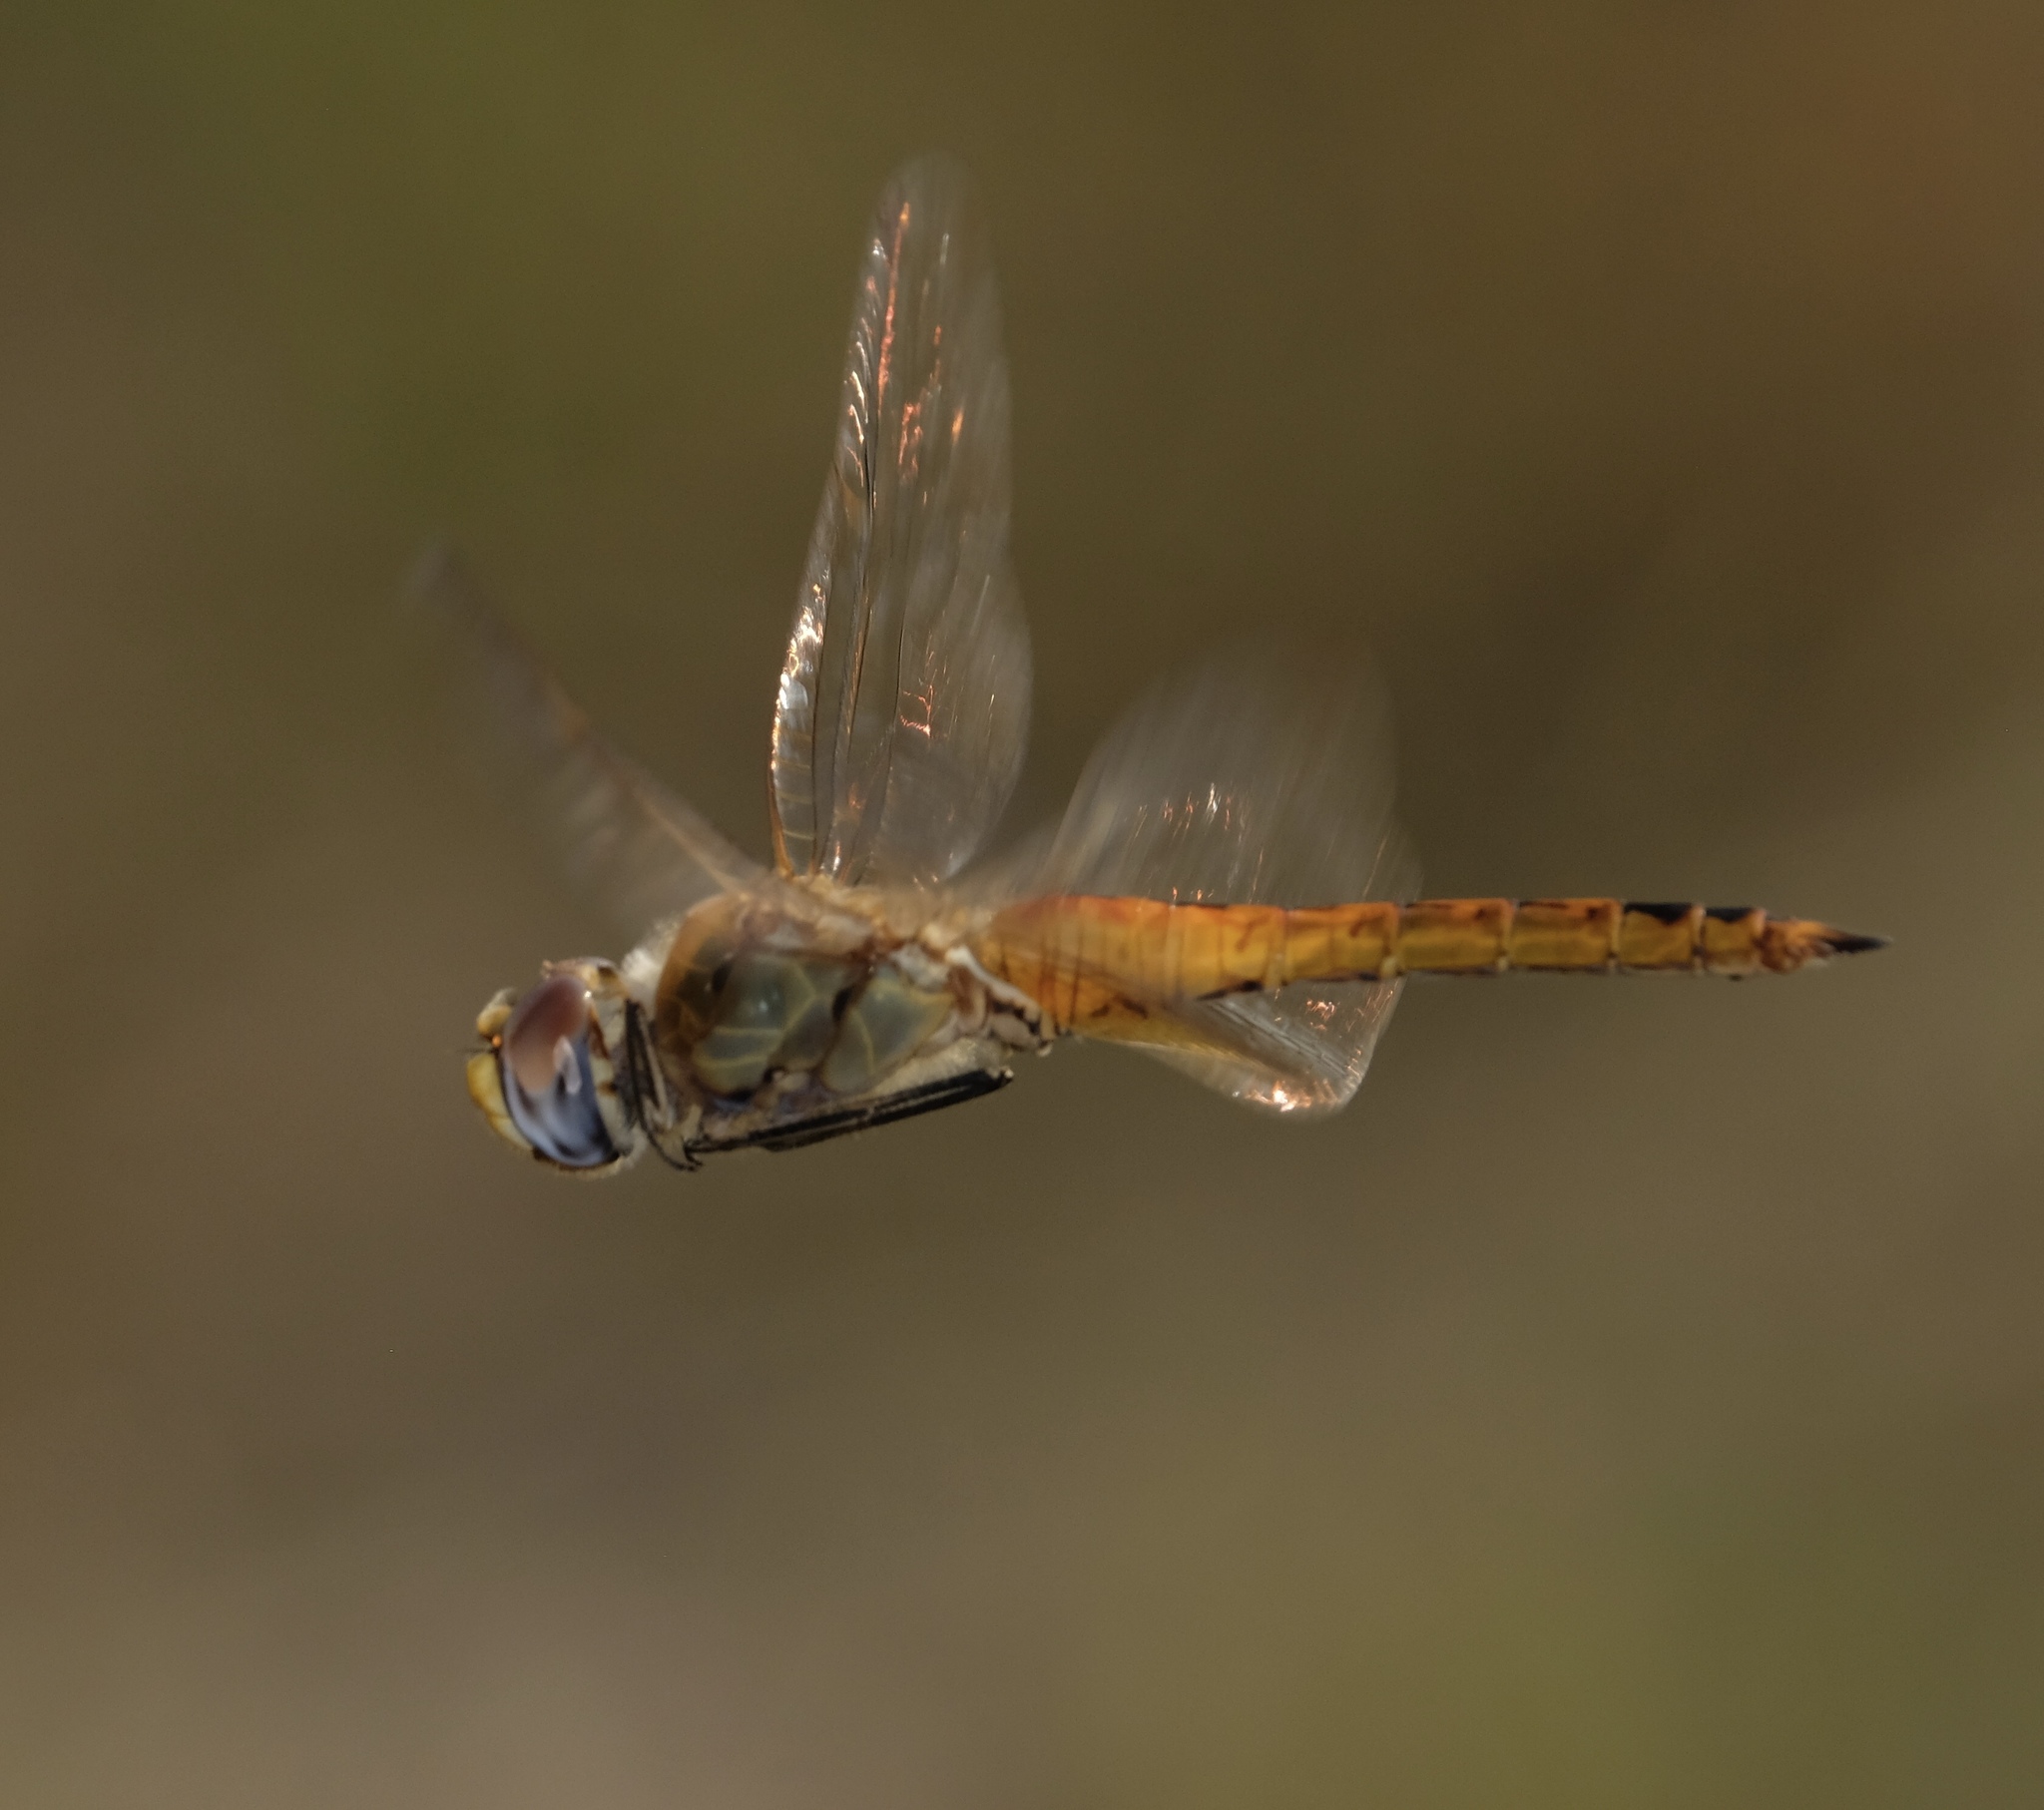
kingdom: Animalia
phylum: Arthropoda
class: Insecta
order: Odonata
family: Libellulidae
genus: Pantala
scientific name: Pantala flavescens
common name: Wandering glider
